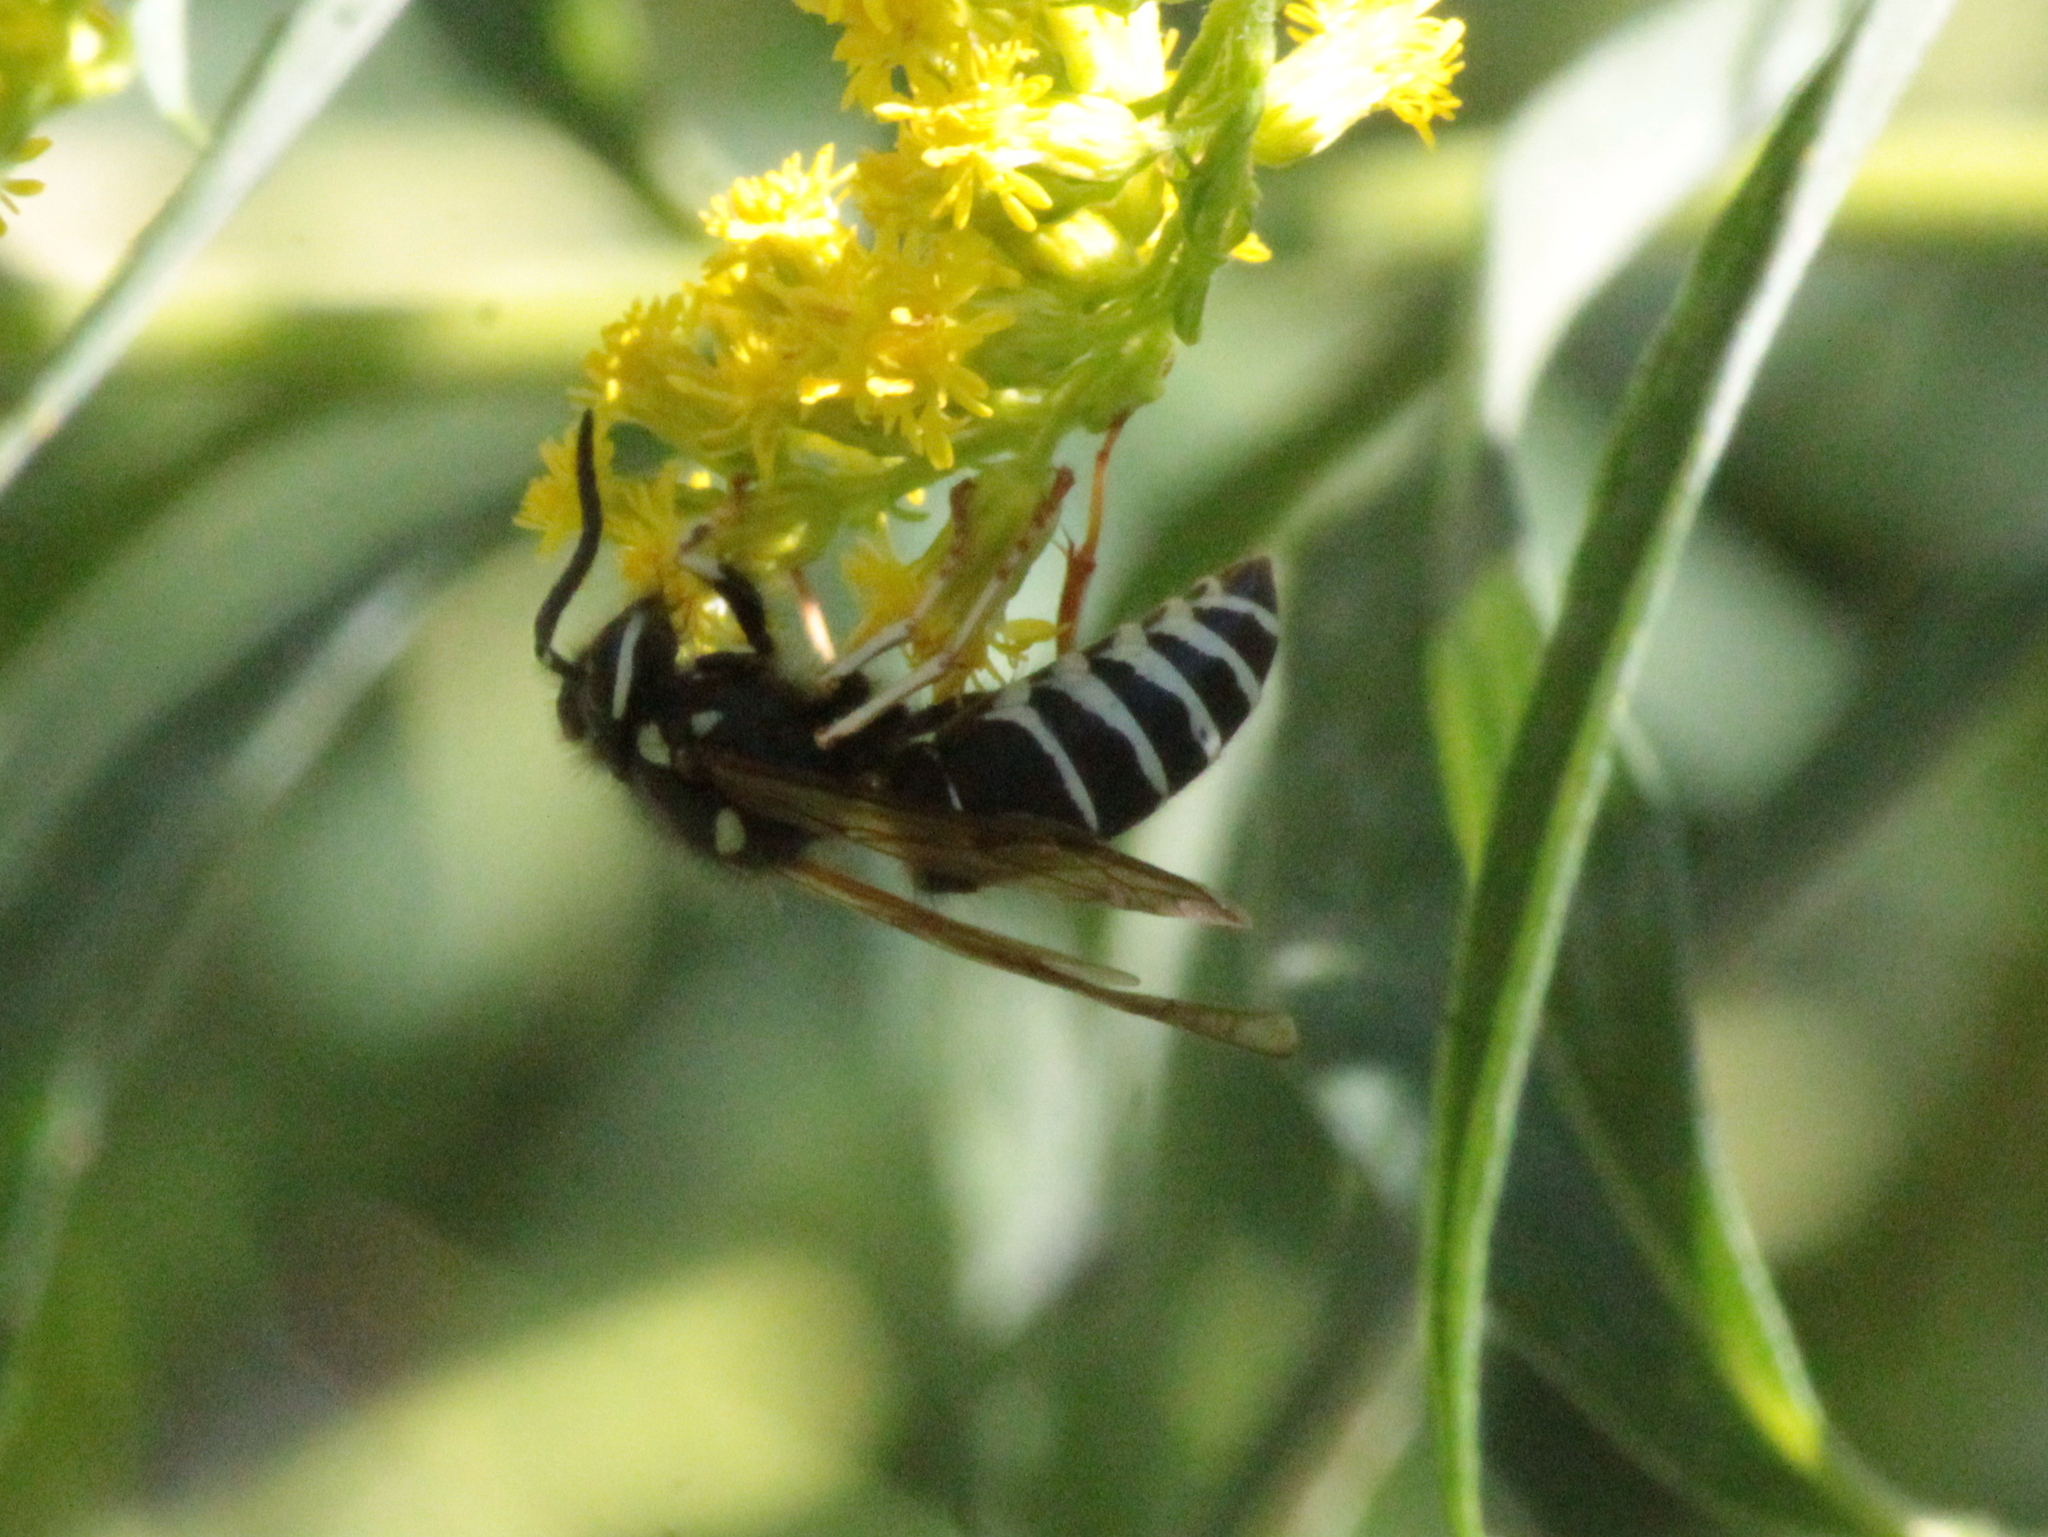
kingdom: Animalia
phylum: Arthropoda
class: Insecta
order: Hymenoptera
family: Vespidae
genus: Vespula
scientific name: Vespula consobrina
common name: Blackjacket
